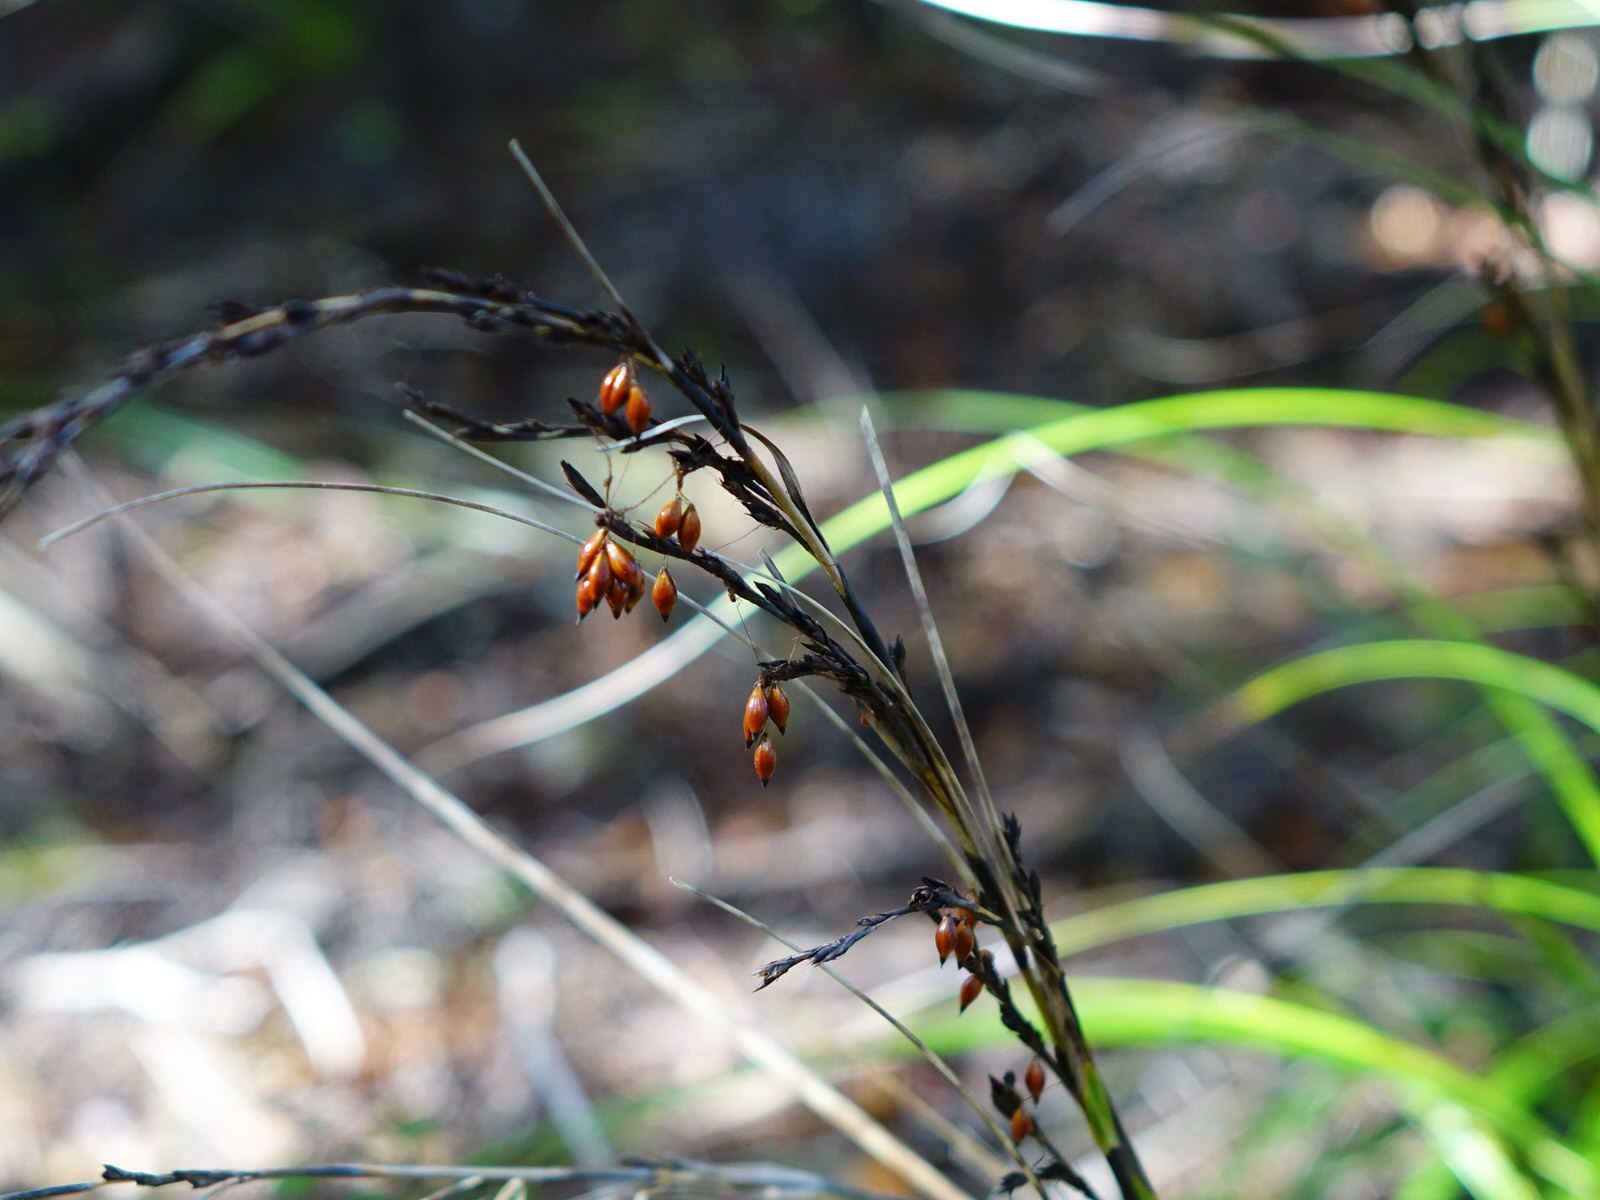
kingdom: Plantae
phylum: Tracheophyta
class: Liliopsida
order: Poales
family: Cyperaceae
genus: Gahnia
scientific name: Gahnia pauciflora
